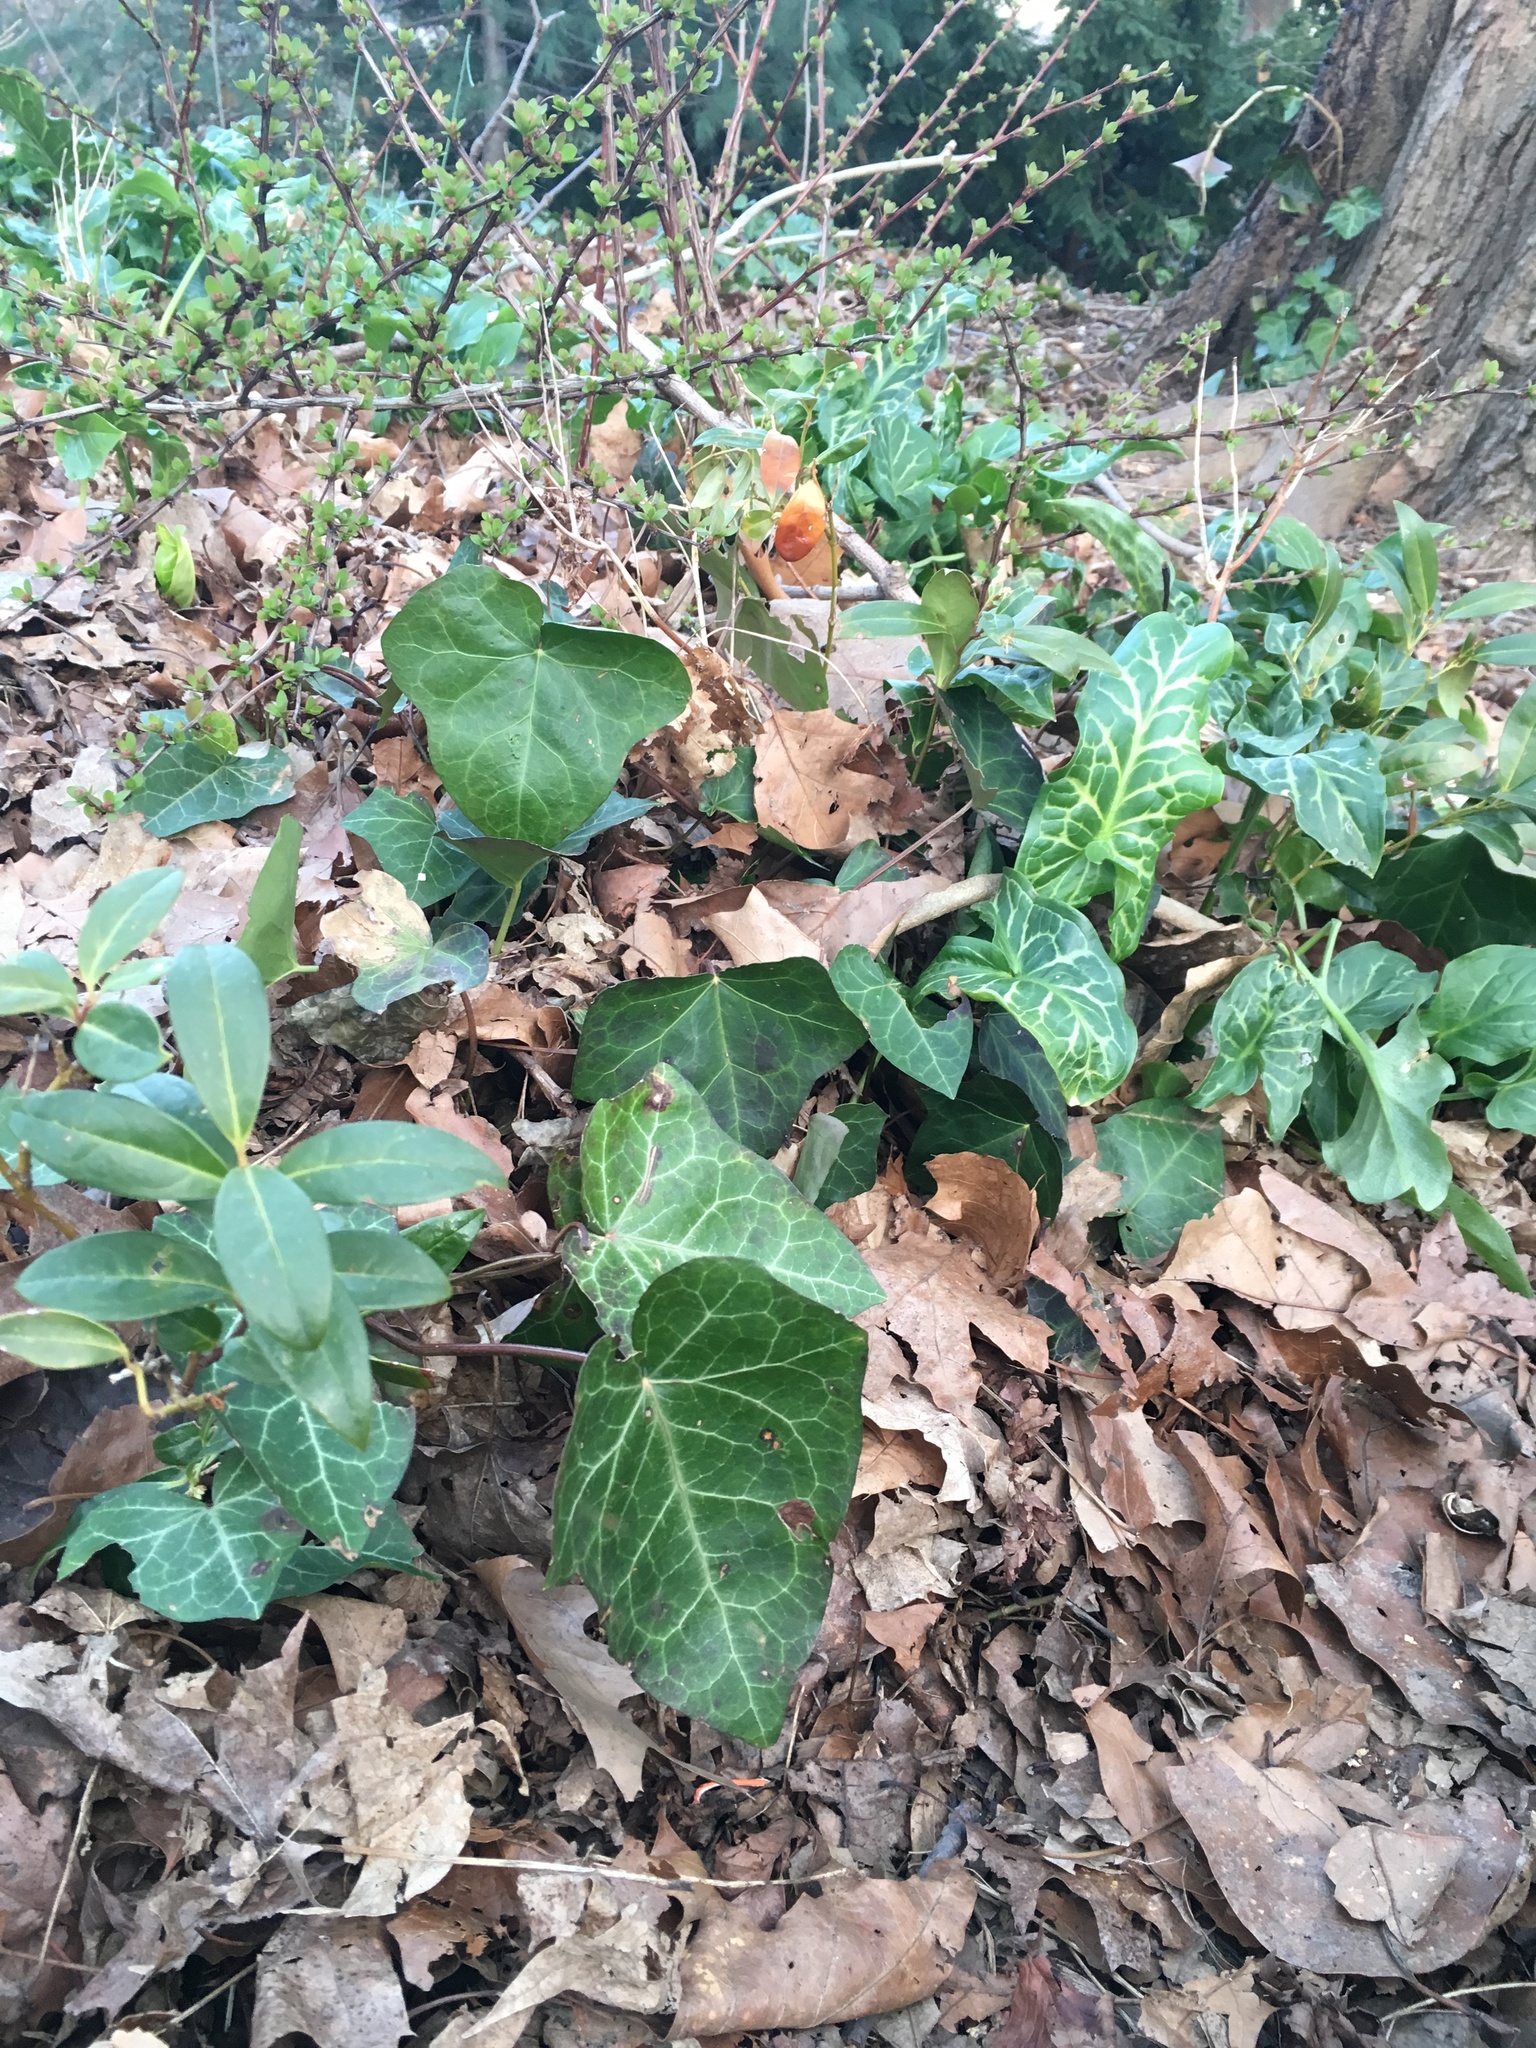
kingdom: Plantae
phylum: Tracheophyta
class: Liliopsida
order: Alismatales
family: Araceae
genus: Arum
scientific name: Arum italicum
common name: Italian lords-and-ladies
